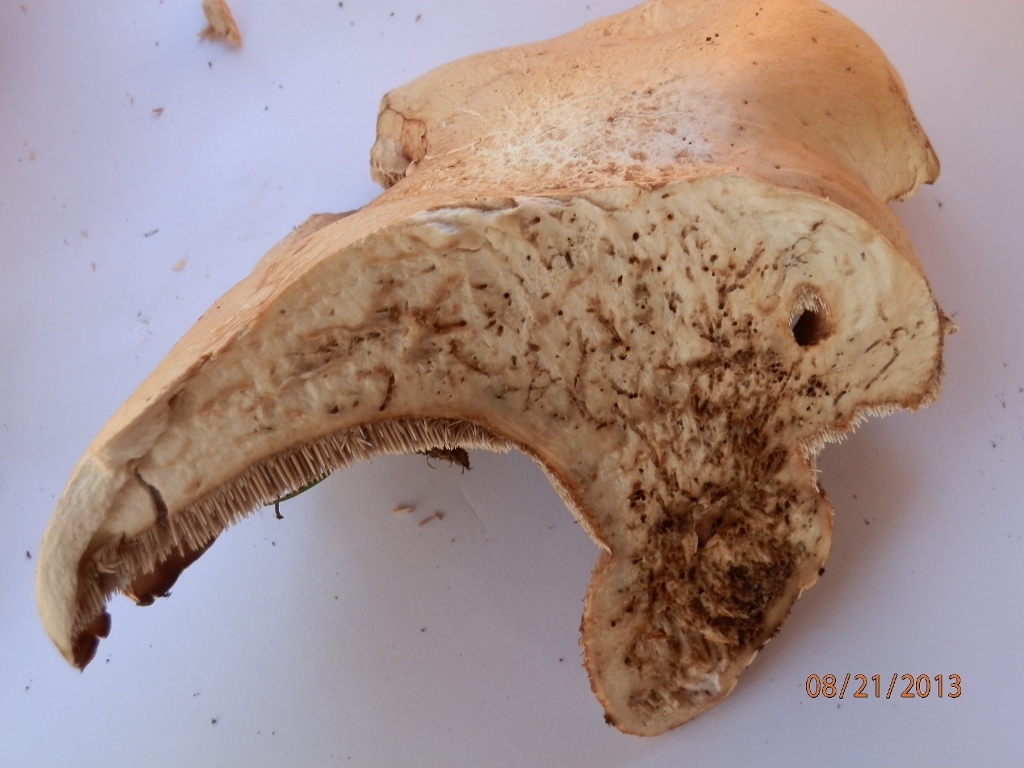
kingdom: Fungi
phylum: Basidiomycota
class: Agaricomycetes
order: Thelephorales
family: Bankeraceae
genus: Sarcodon
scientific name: Sarcodon stereosarcinon
